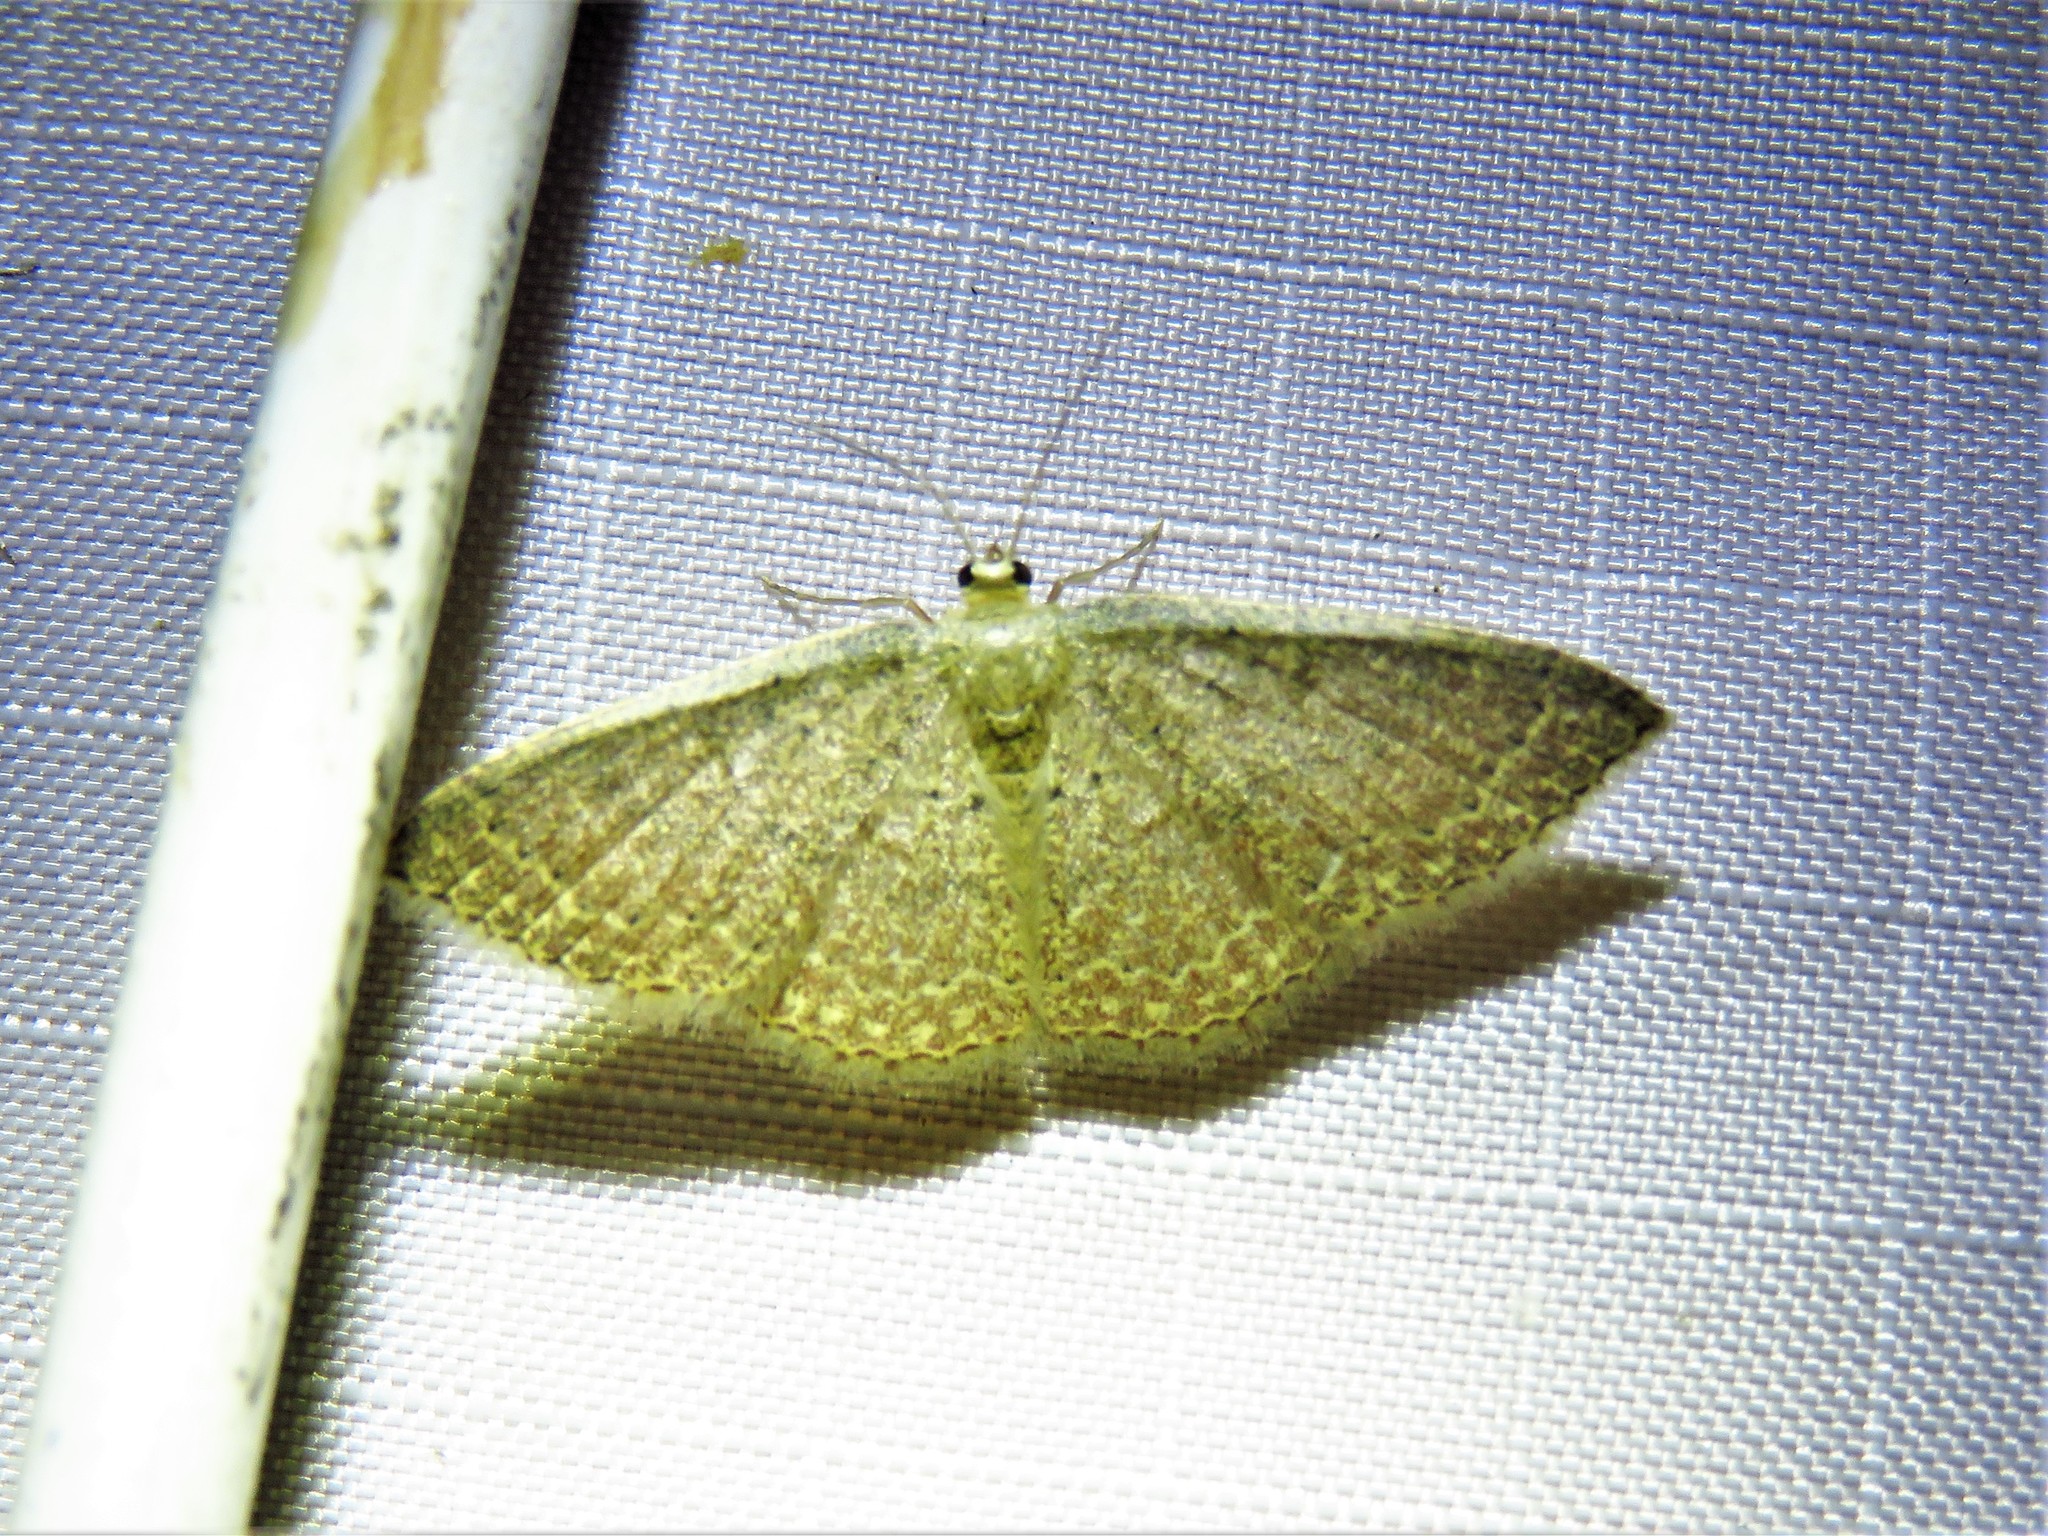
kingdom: Animalia
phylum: Arthropoda
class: Insecta
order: Lepidoptera
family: Geometridae
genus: Pleuroprucha
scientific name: Pleuroprucha insulsaria
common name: Common tan wave
